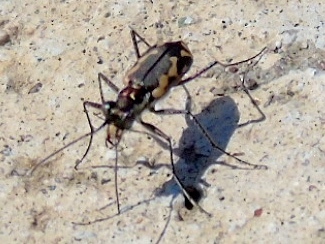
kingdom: Animalia
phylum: Arthropoda
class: Insecta
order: Coleoptera
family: Carabidae
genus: Cicindela
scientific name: Cicindela hydrophoba
